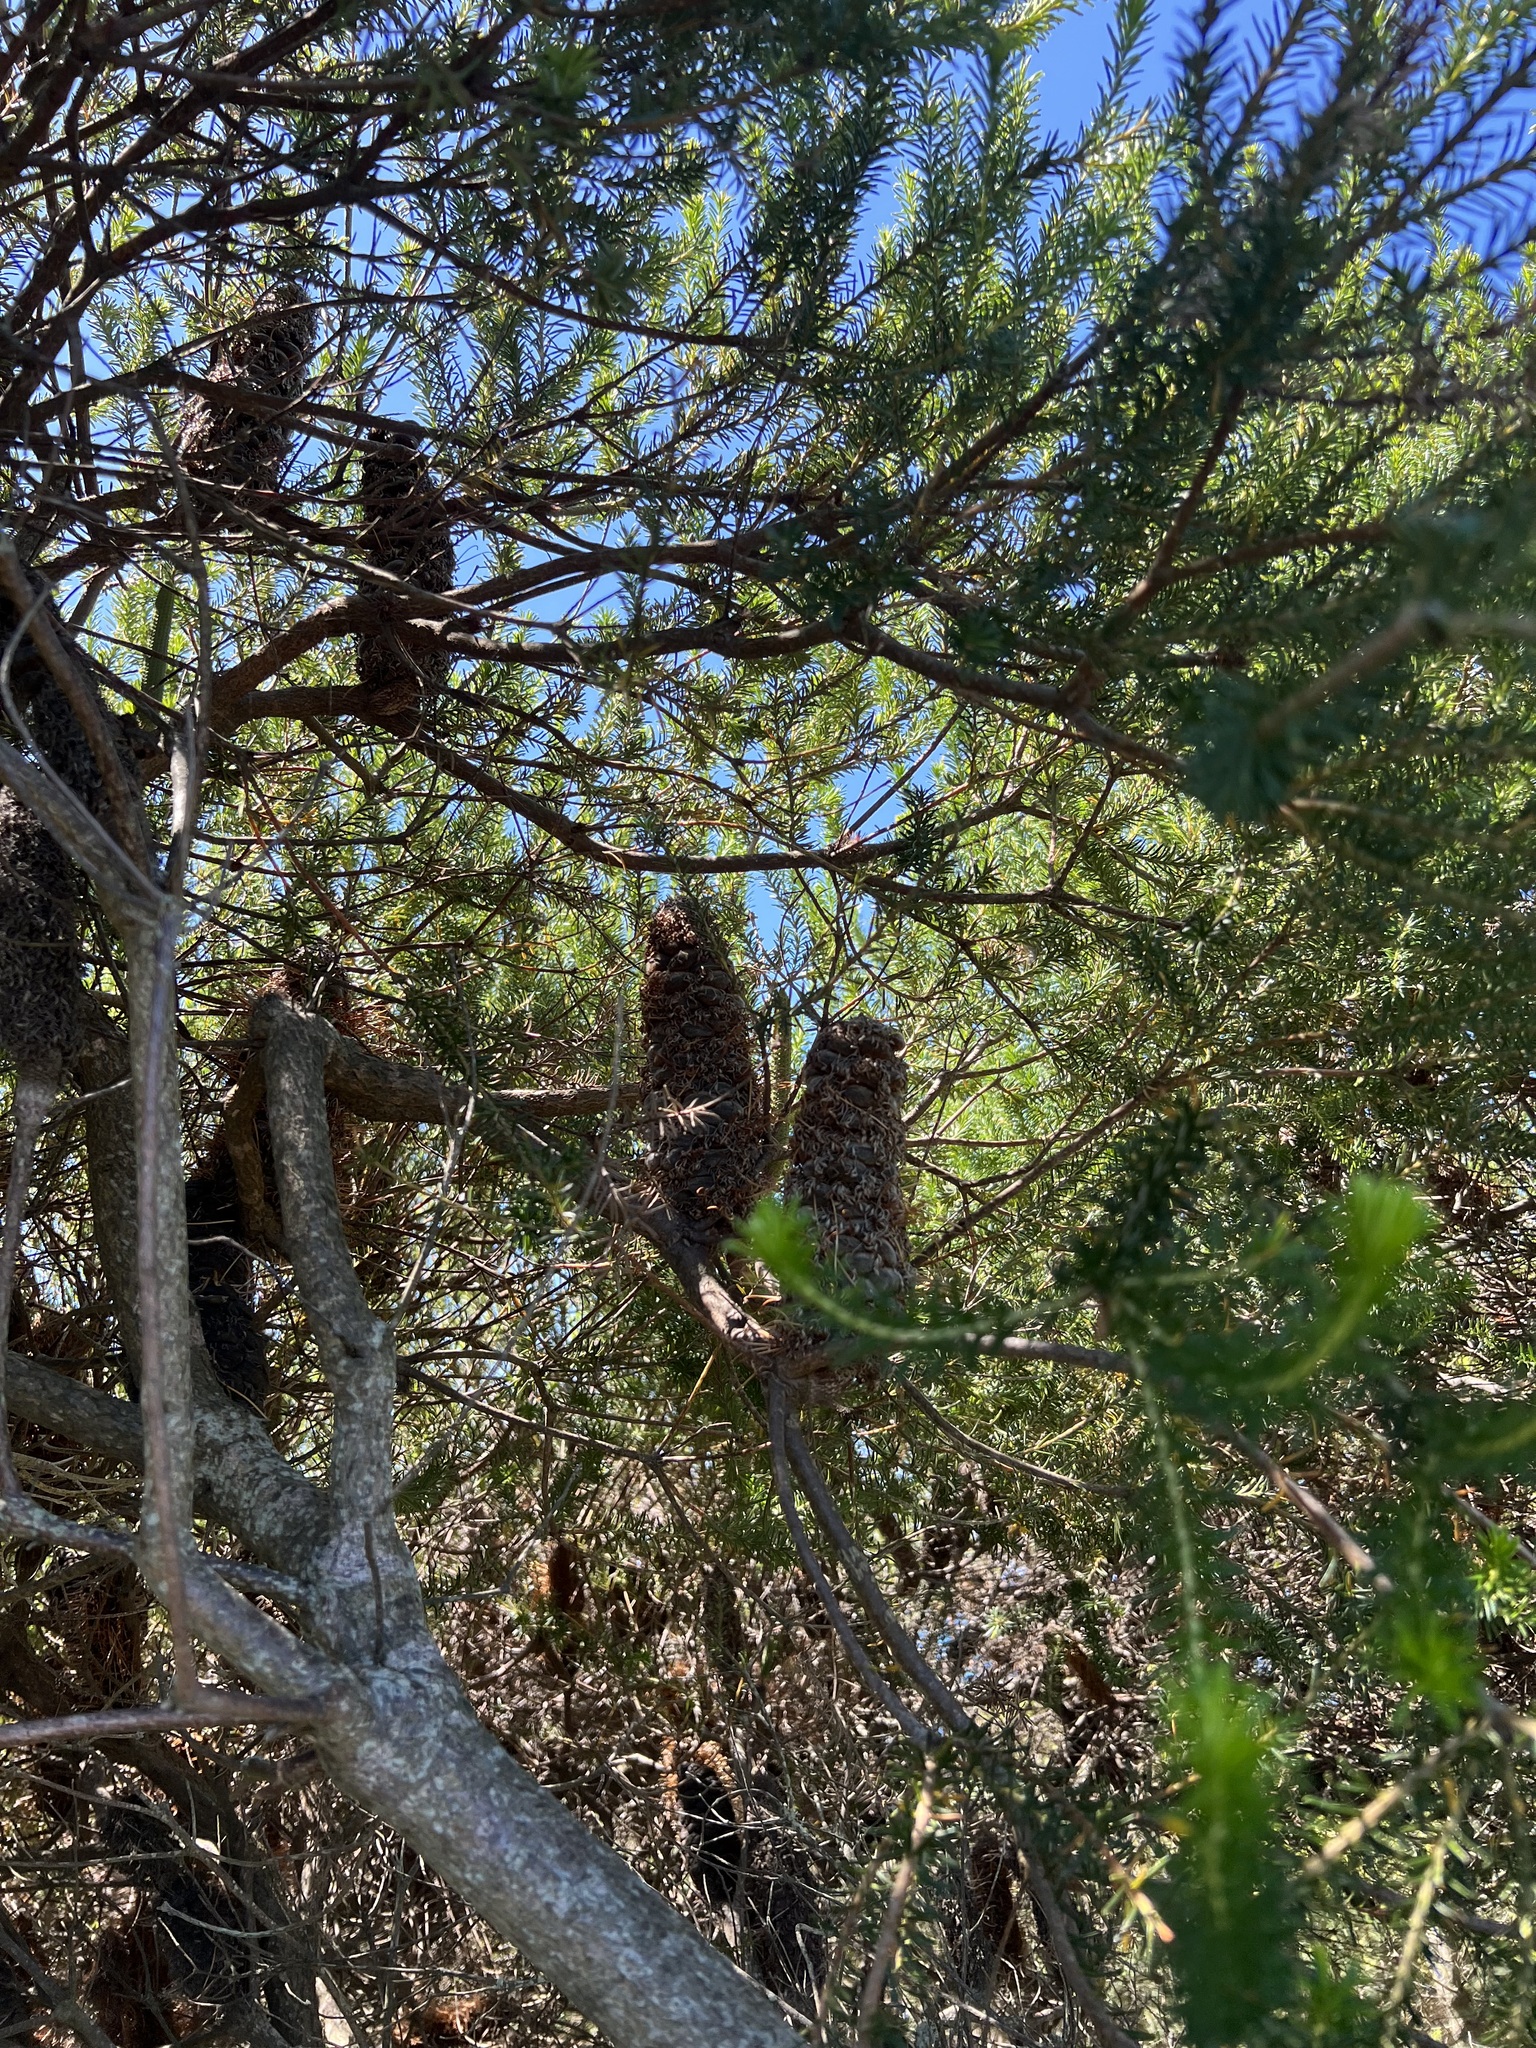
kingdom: Plantae
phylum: Tracheophyta
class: Magnoliopsida
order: Proteales
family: Proteaceae
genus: Banksia
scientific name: Banksia ericifolia
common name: Heath-leaf banksia
